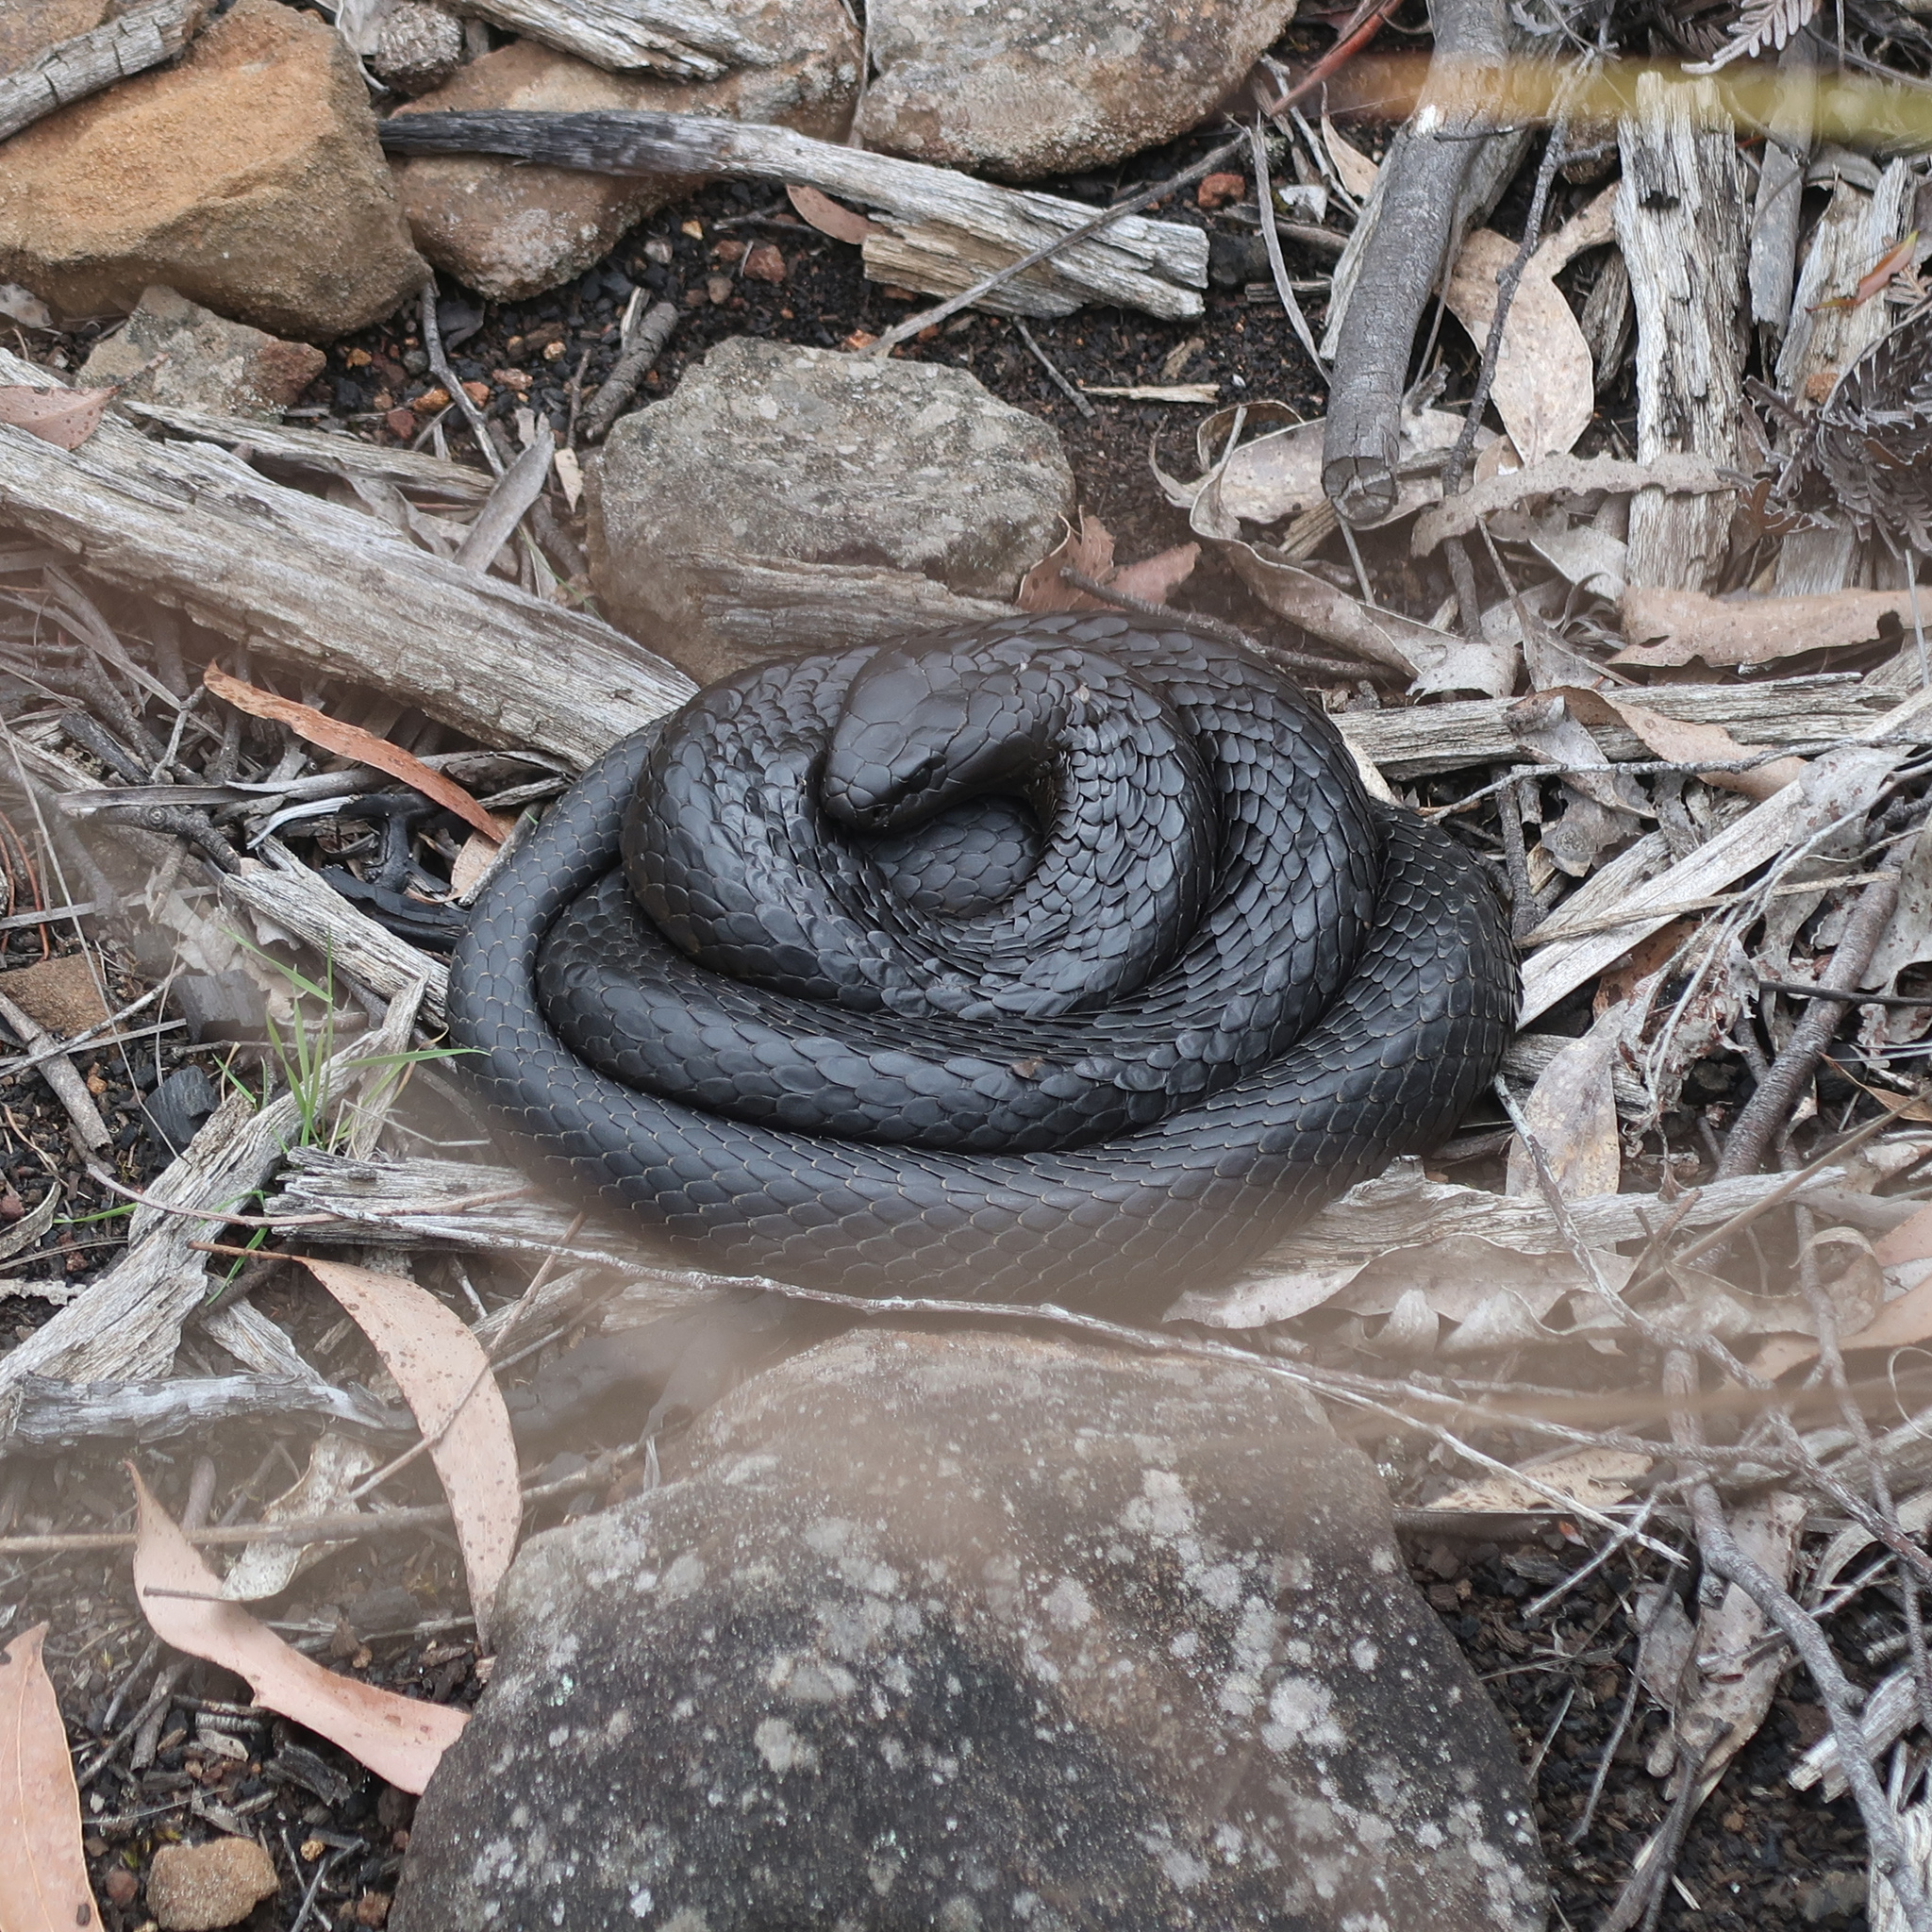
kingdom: Animalia
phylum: Chordata
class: Squamata
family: Elapidae
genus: Notechis
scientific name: Notechis scutatus
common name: Mainland tiger snake
